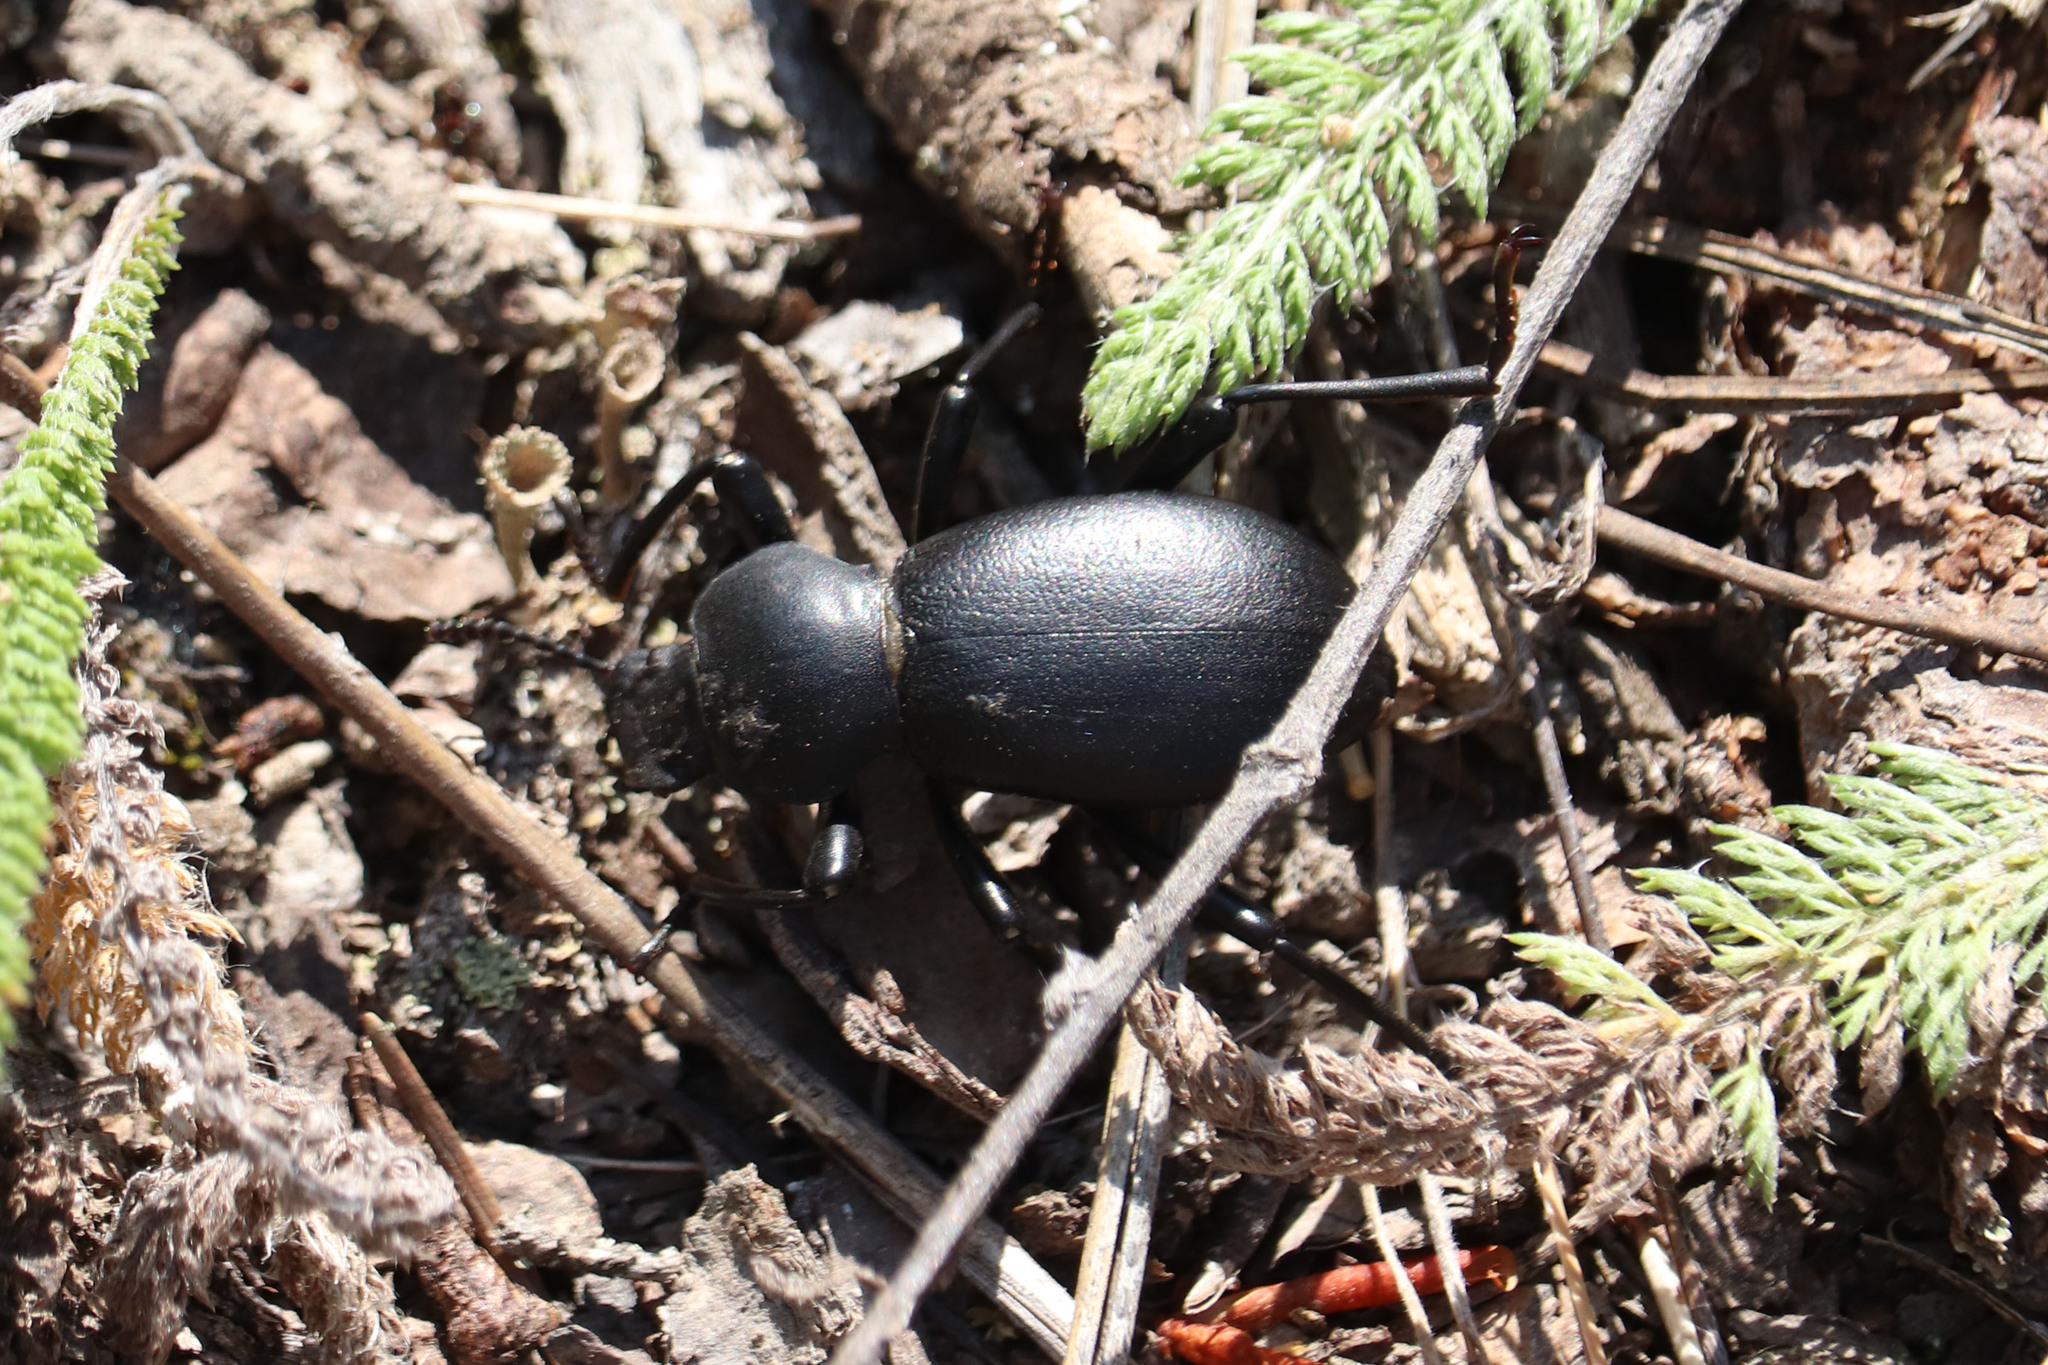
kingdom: Animalia
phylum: Arthropoda
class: Insecta
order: Coleoptera
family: Tenebrionidae
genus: Coelocnemis
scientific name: Coelocnemis dilaticollis
